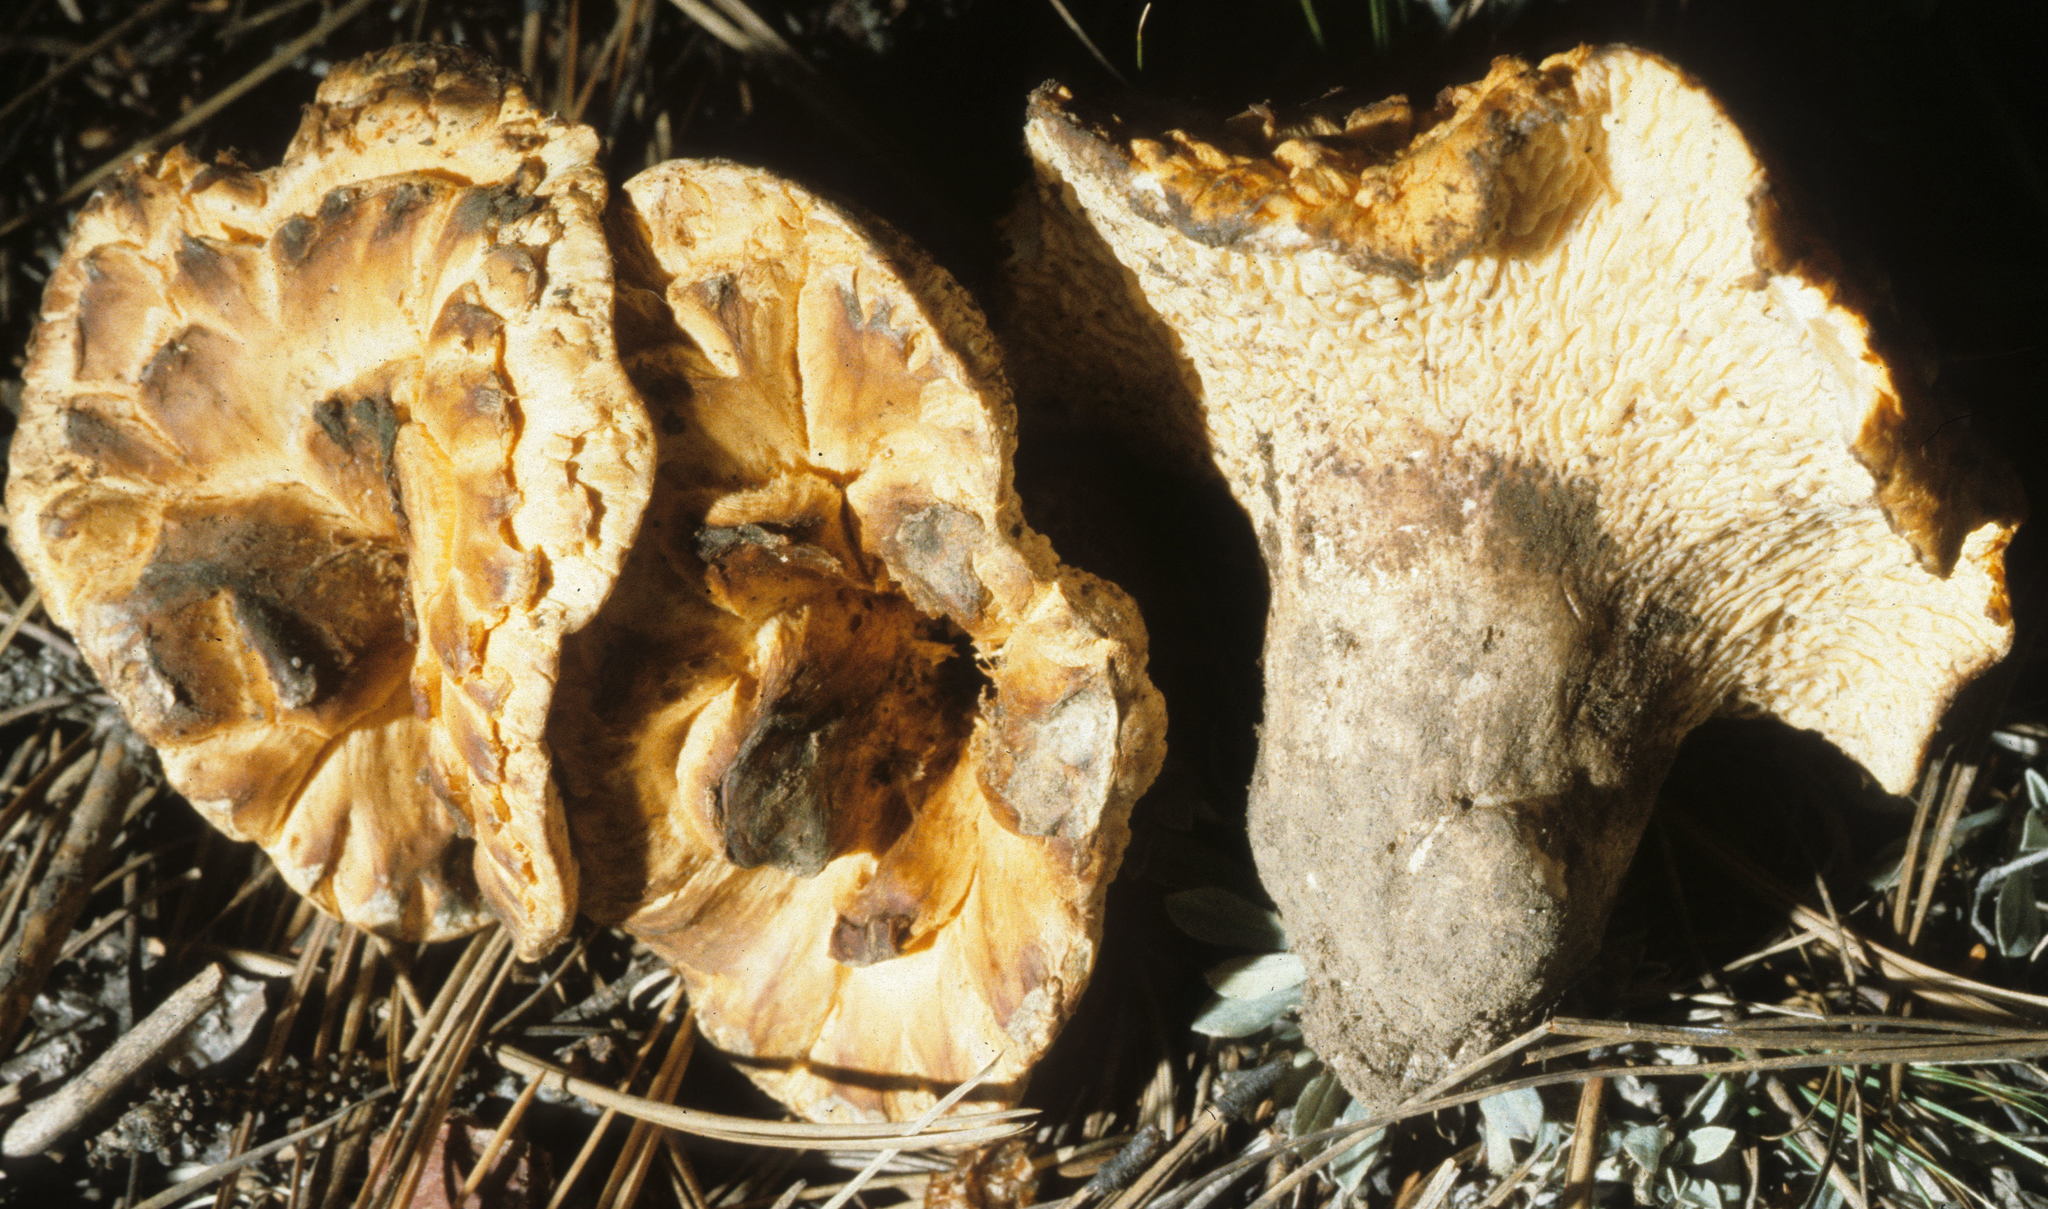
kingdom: Fungi
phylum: Basidiomycota
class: Agaricomycetes
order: Gomphales
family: Gomphaceae
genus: Turbinellus
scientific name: Turbinellus floccosus
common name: Scaly chanterelle
